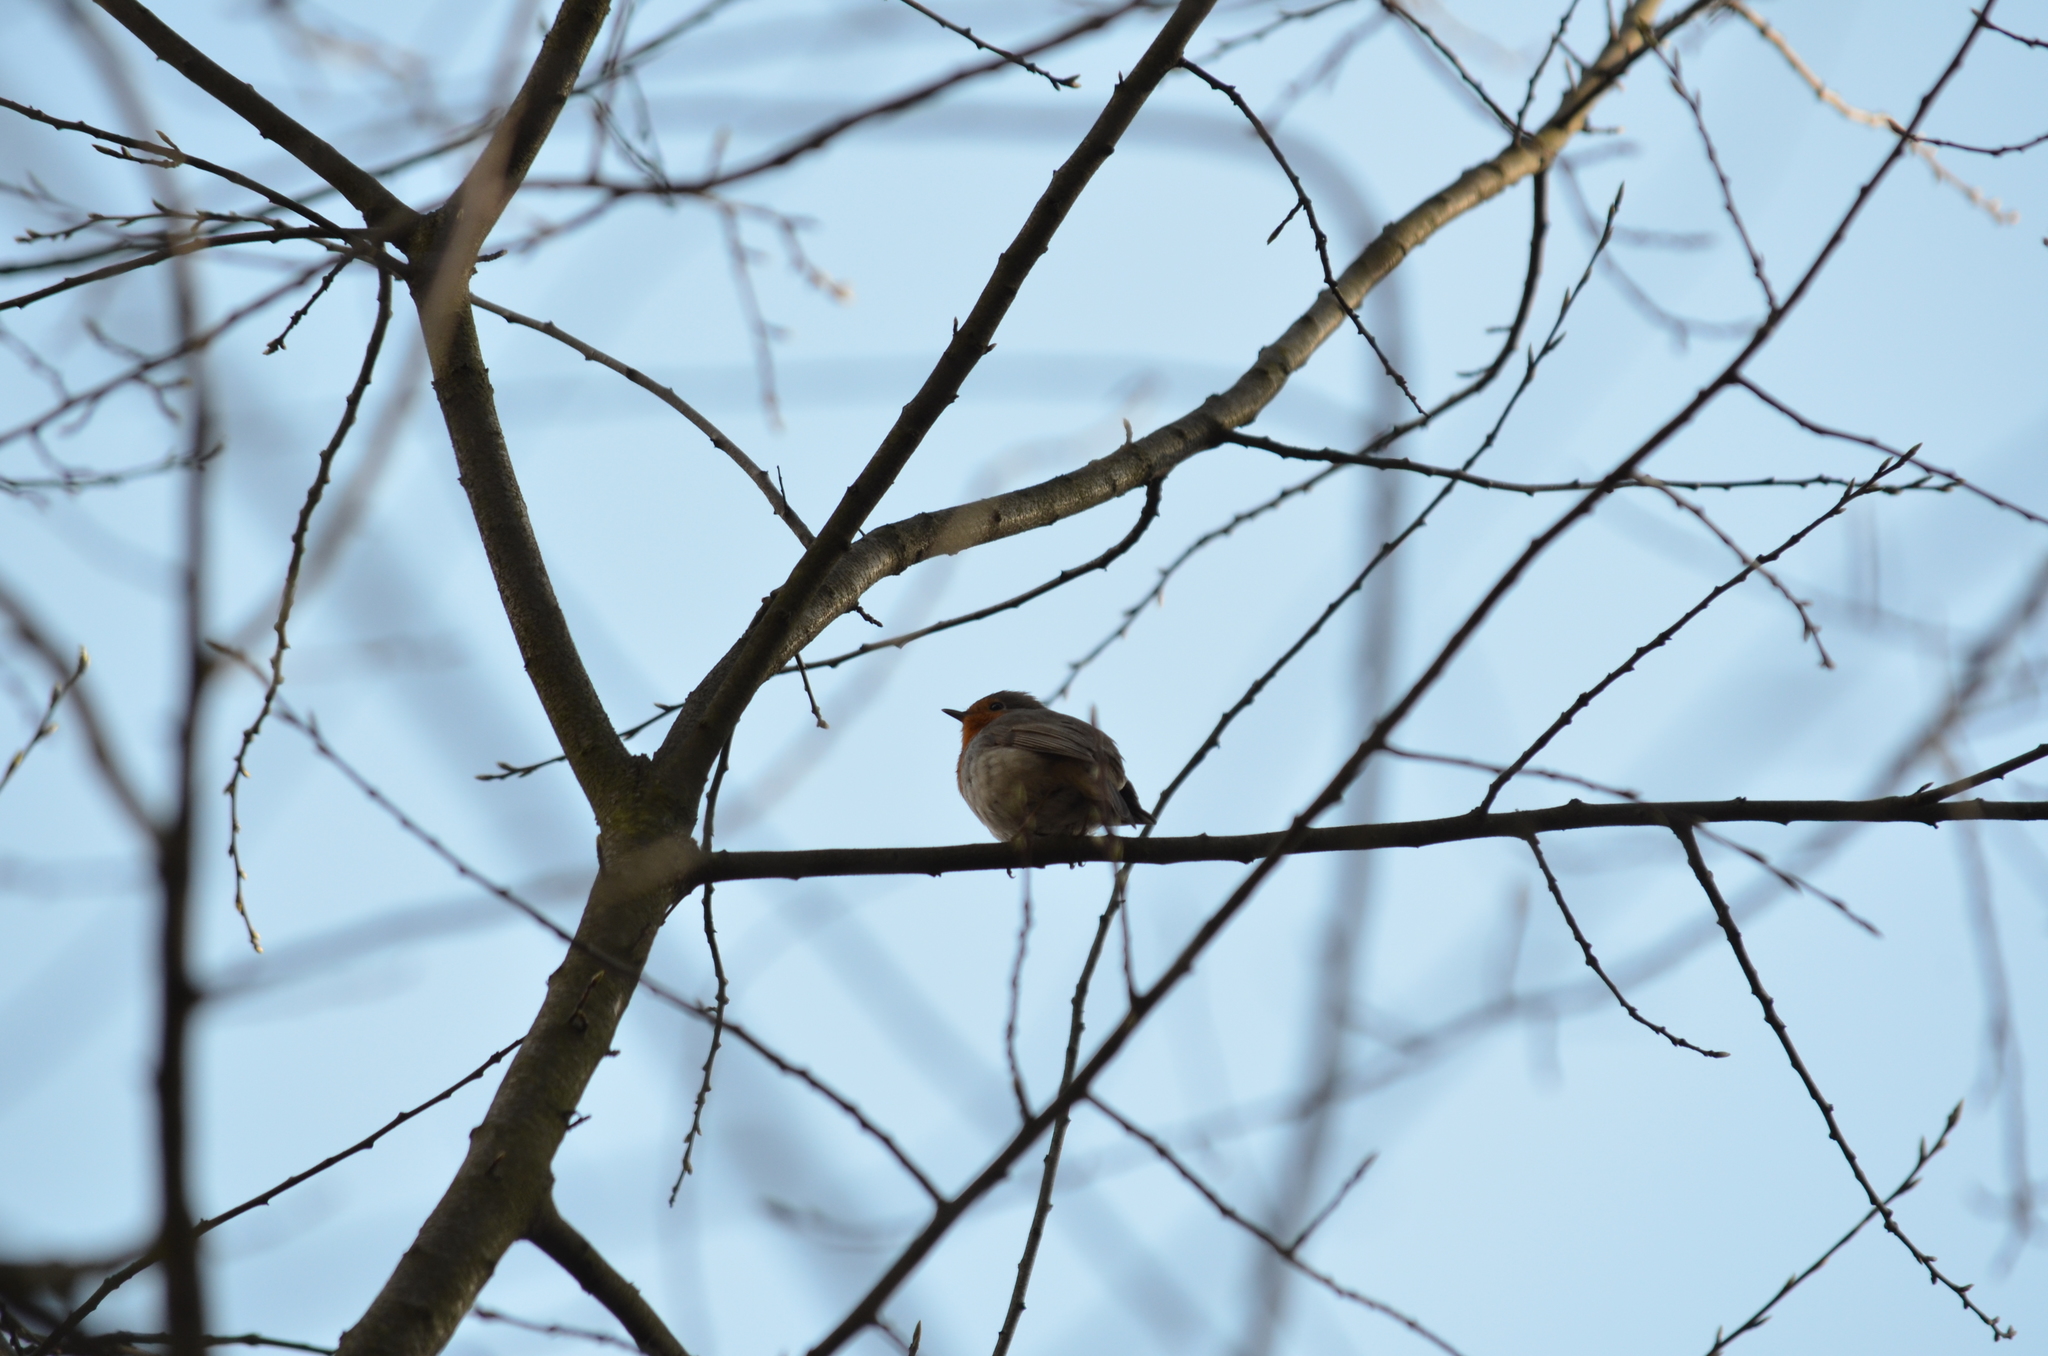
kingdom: Animalia
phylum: Chordata
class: Aves
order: Passeriformes
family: Muscicapidae
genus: Erithacus
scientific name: Erithacus rubecula
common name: European robin
